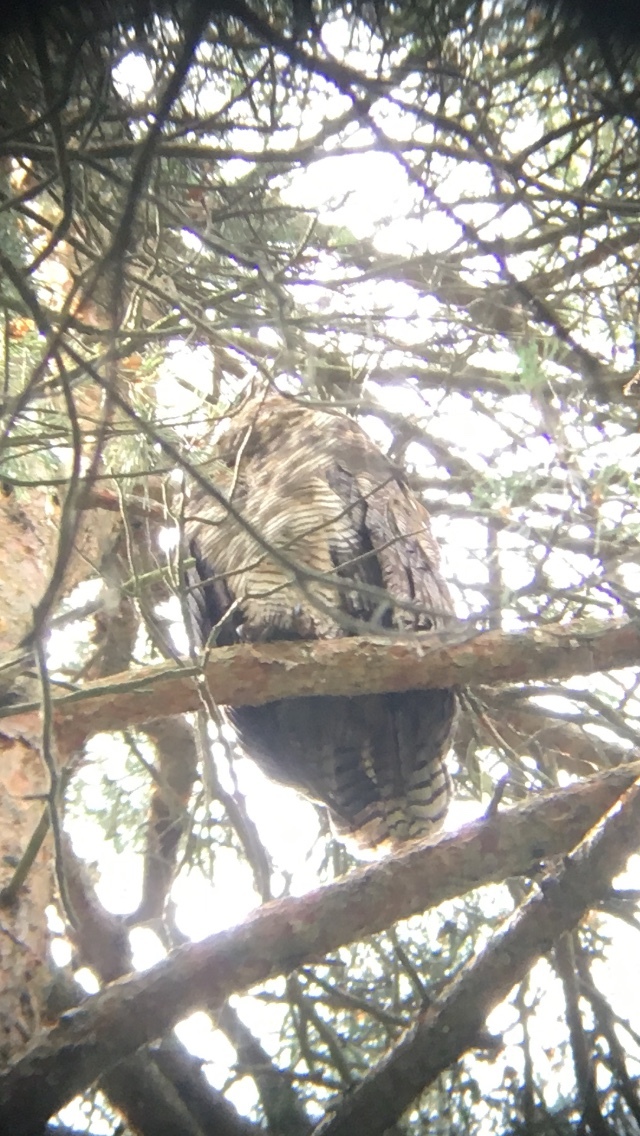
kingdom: Animalia
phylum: Chordata
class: Aves
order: Strigiformes
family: Strigidae
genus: Bubo
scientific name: Bubo virginianus
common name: Great horned owl
